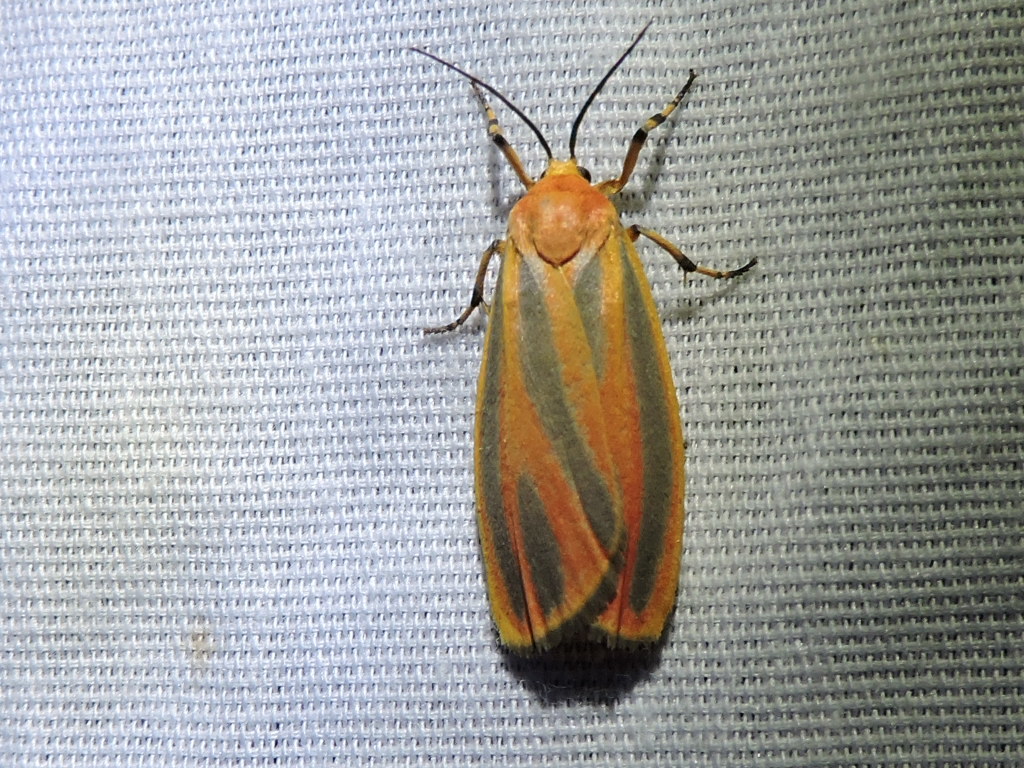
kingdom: Animalia
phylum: Arthropoda
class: Insecta
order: Lepidoptera
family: Erebidae
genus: Hypoprepia
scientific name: Hypoprepia fucosa
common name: Painted lichen moth
